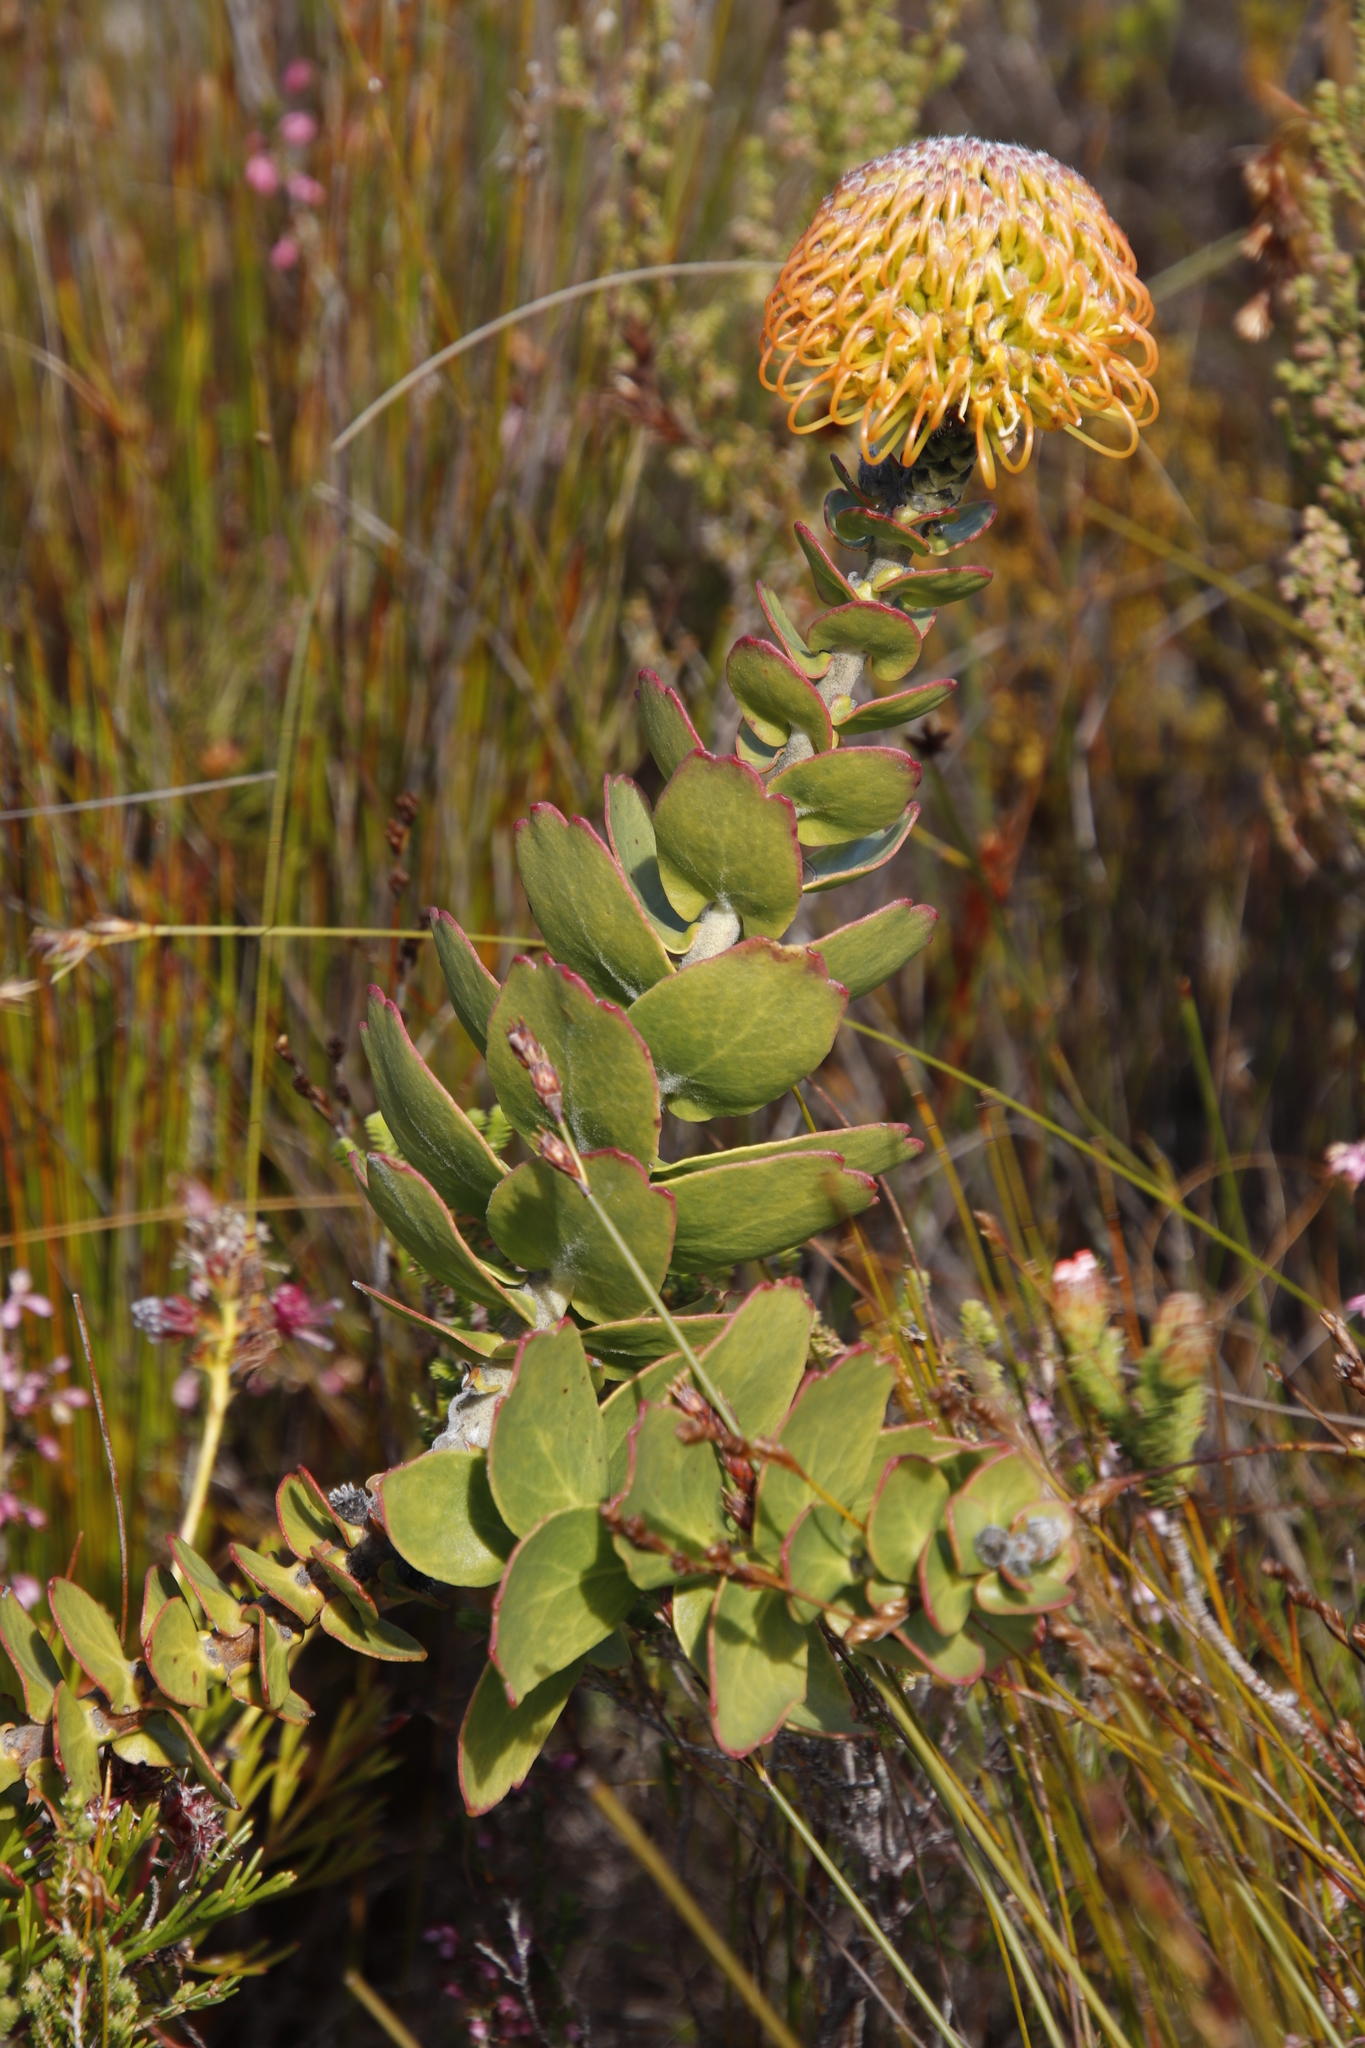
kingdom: Plantae
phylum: Tracheophyta
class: Magnoliopsida
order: Proteales
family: Proteaceae
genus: Leucospermum
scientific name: Leucospermum cordifolium
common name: Red pincushion-protea
